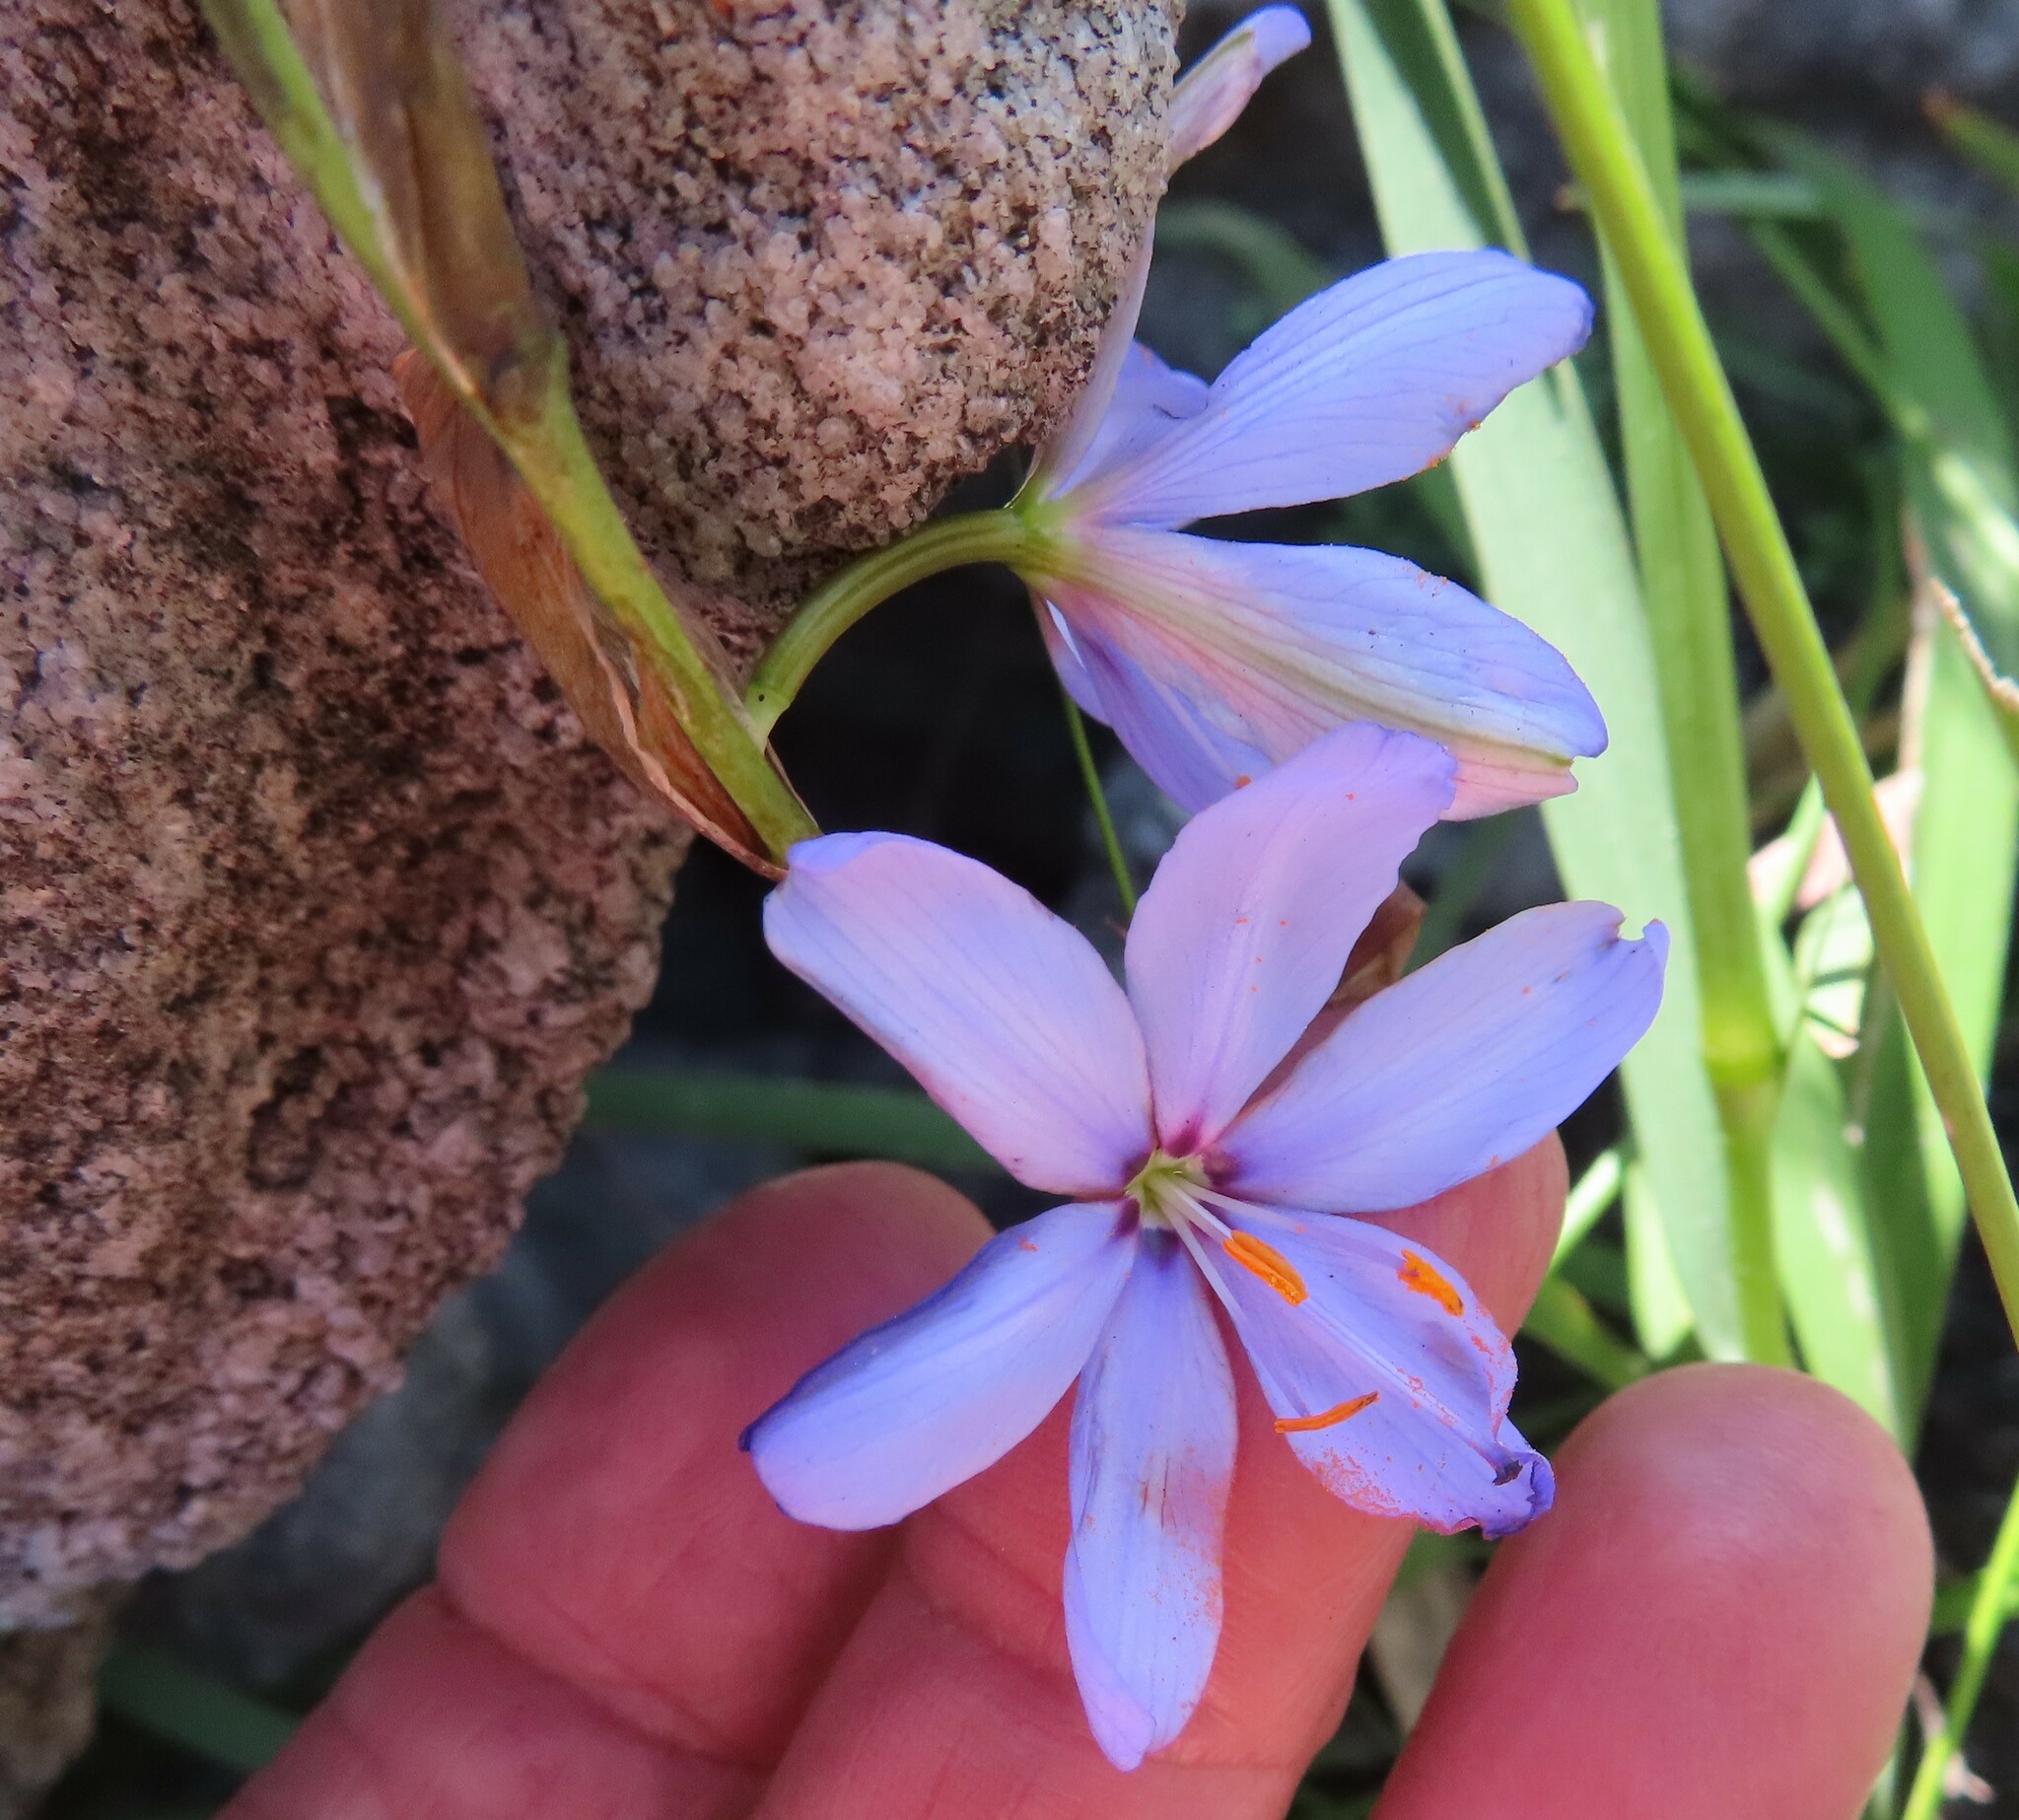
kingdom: Plantae
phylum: Tracheophyta
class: Liliopsida
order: Asparagales
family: Iridaceae
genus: Aristea
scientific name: Aristea spiralis
